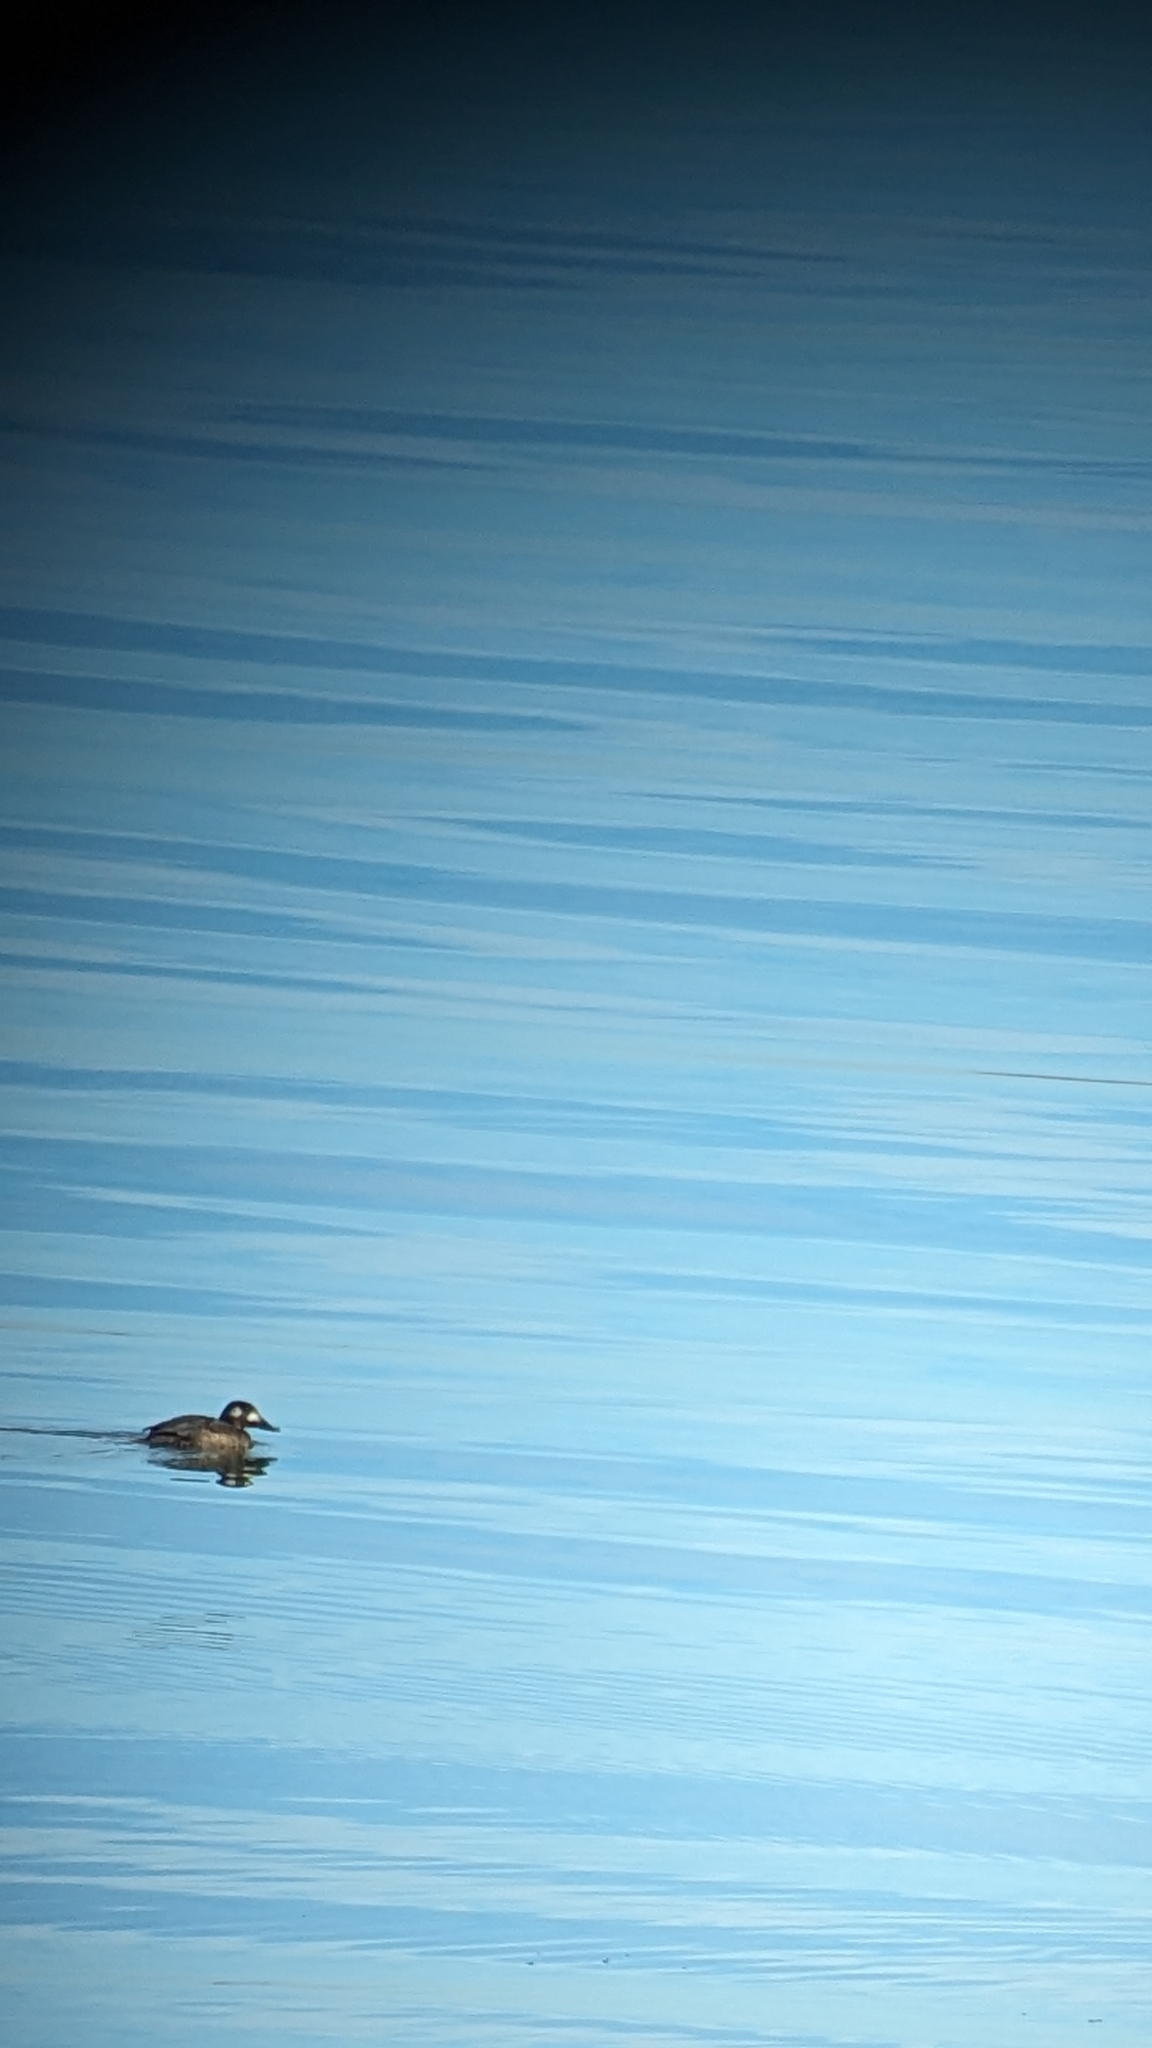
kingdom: Animalia
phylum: Chordata
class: Aves
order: Anseriformes
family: Anatidae
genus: Melanitta
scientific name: Melanitta deglandi
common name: White-winged scoter
